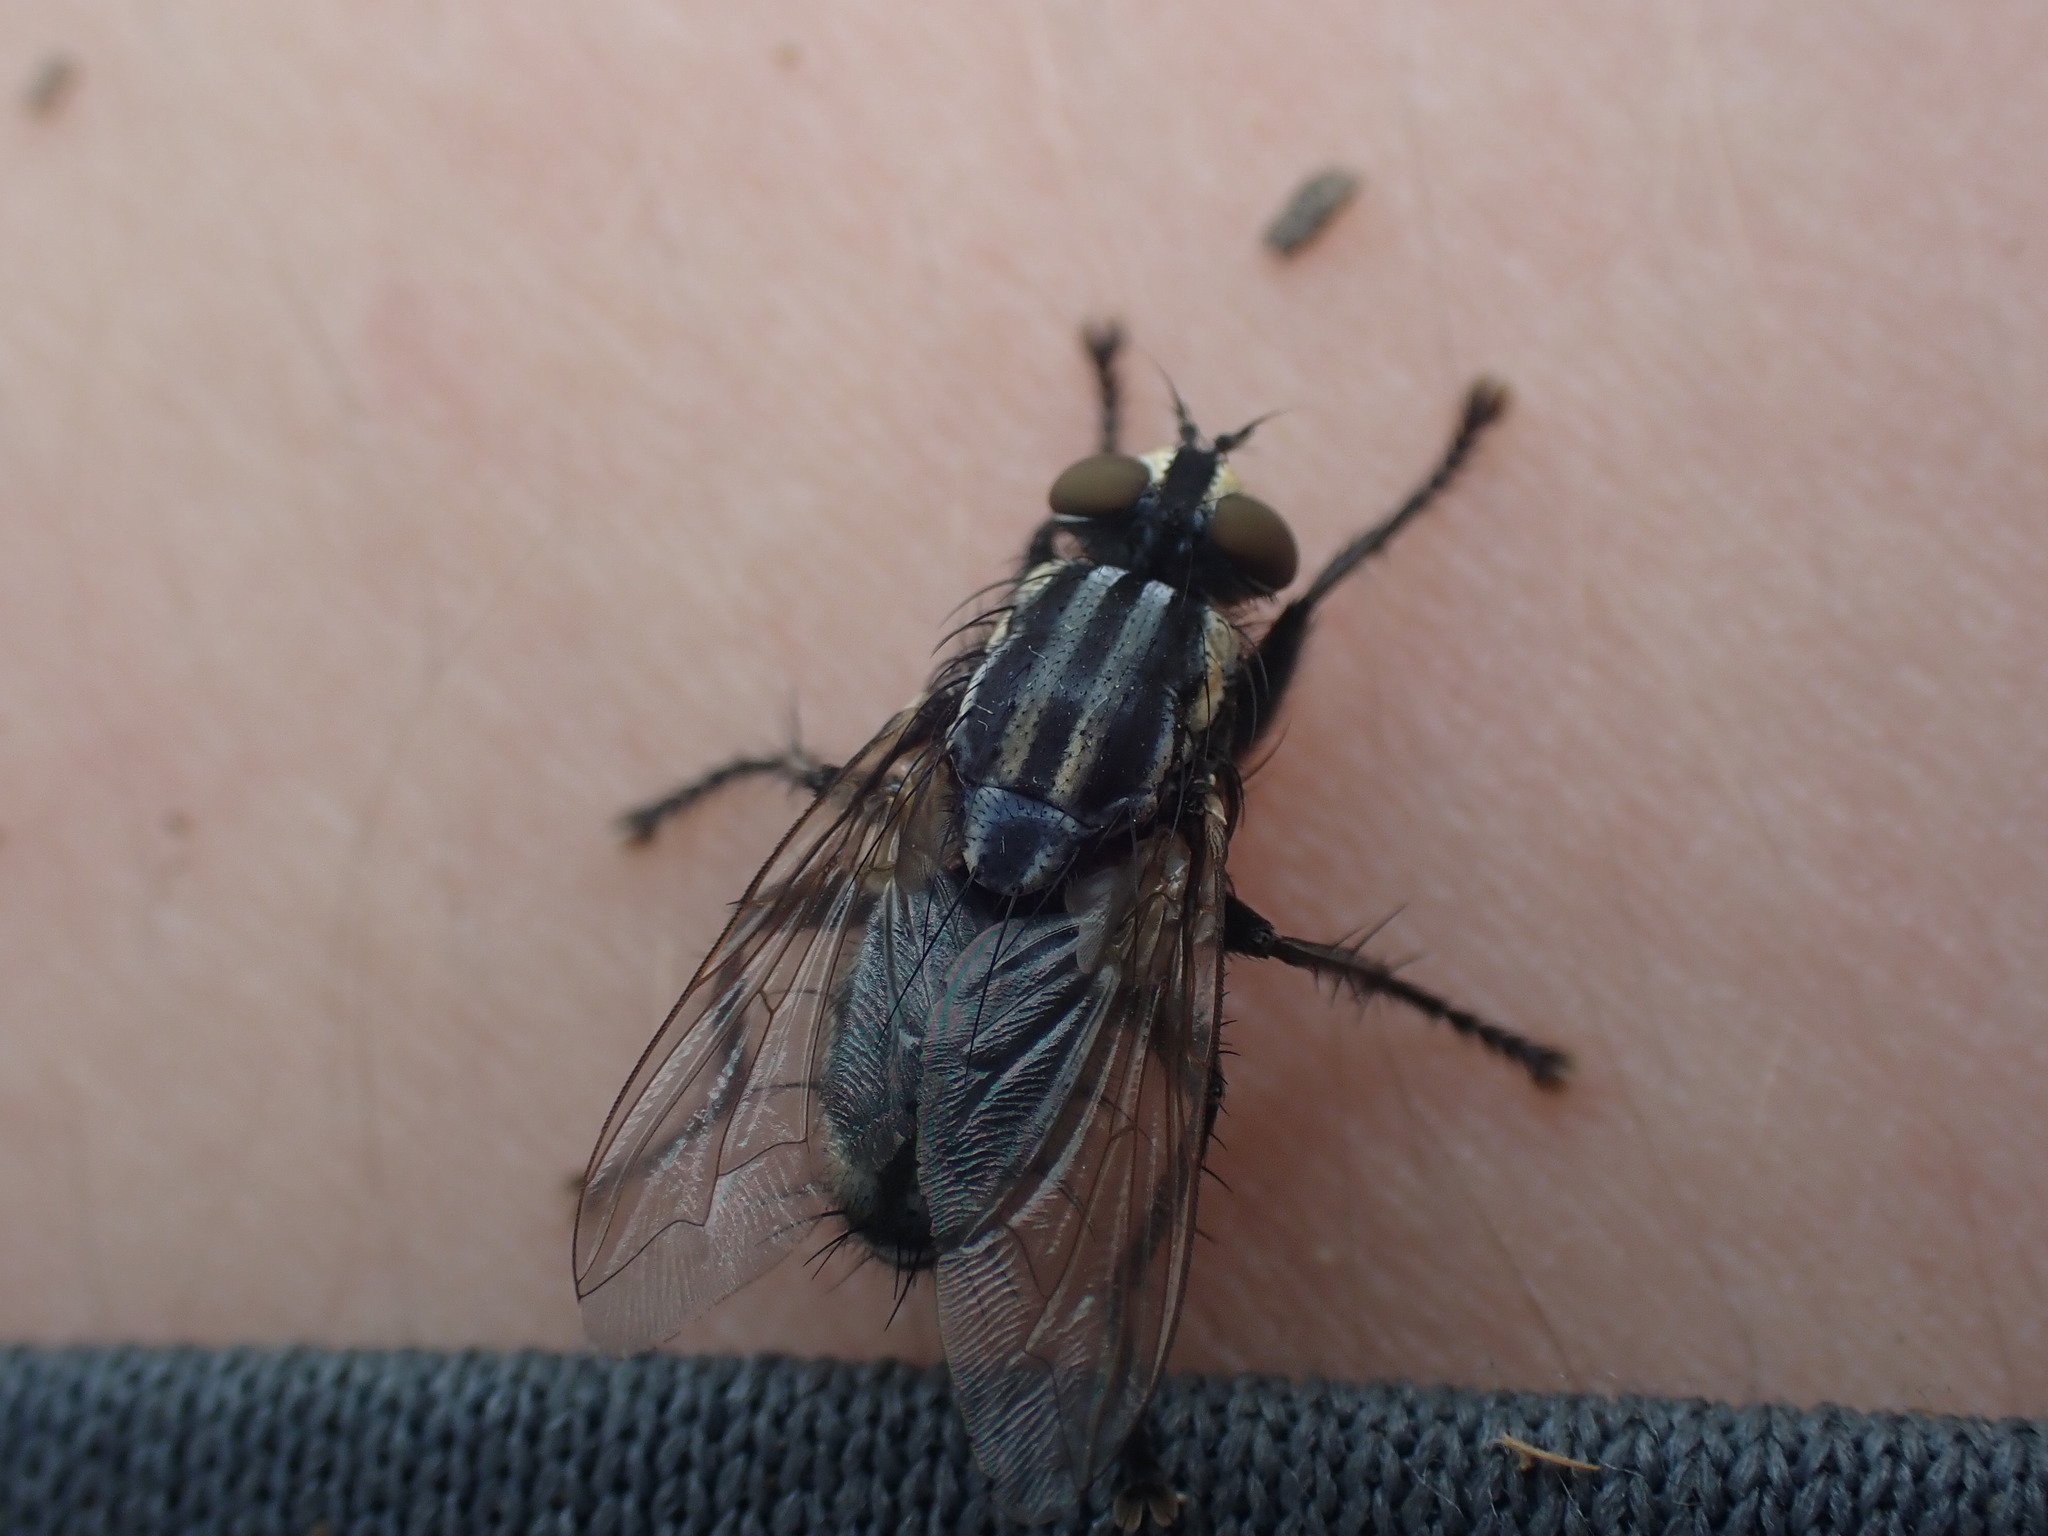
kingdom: Animalia
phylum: Arthropoda
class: Insecta
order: Diptera
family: Sarcophagidae
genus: Oxysarcodexia
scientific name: Oxysarcodexia varia
